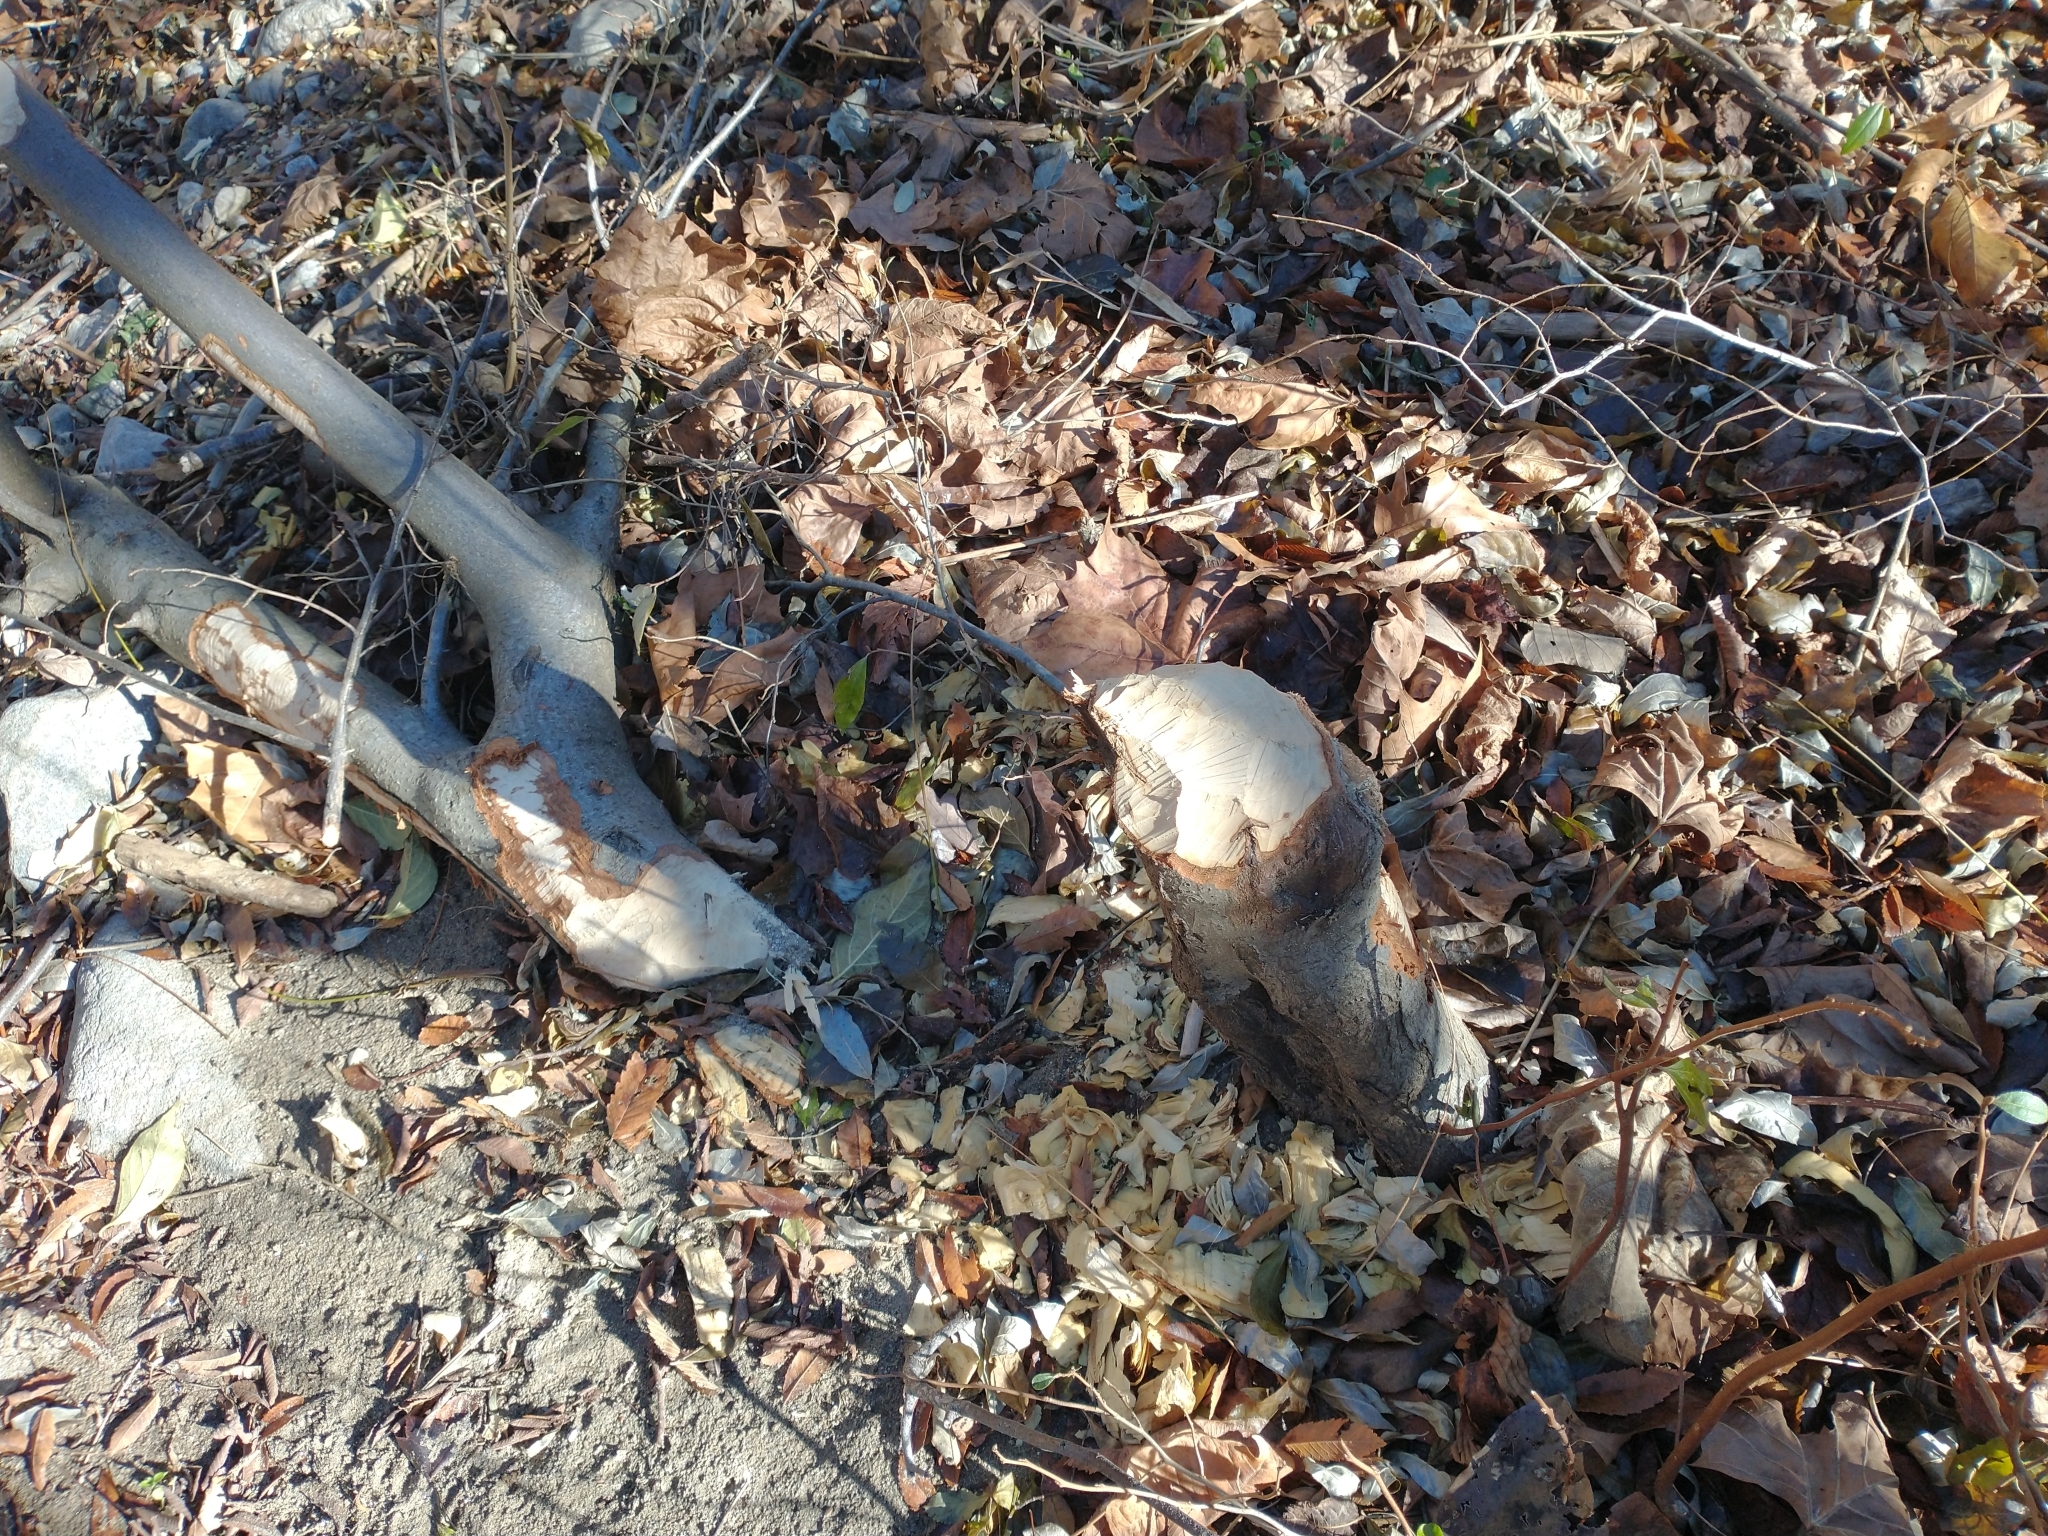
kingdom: Animalia
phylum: Chordata
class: Mammalia
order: Rodentia
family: Castoridae
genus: Castor
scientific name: Castor canadensis
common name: American beaver
